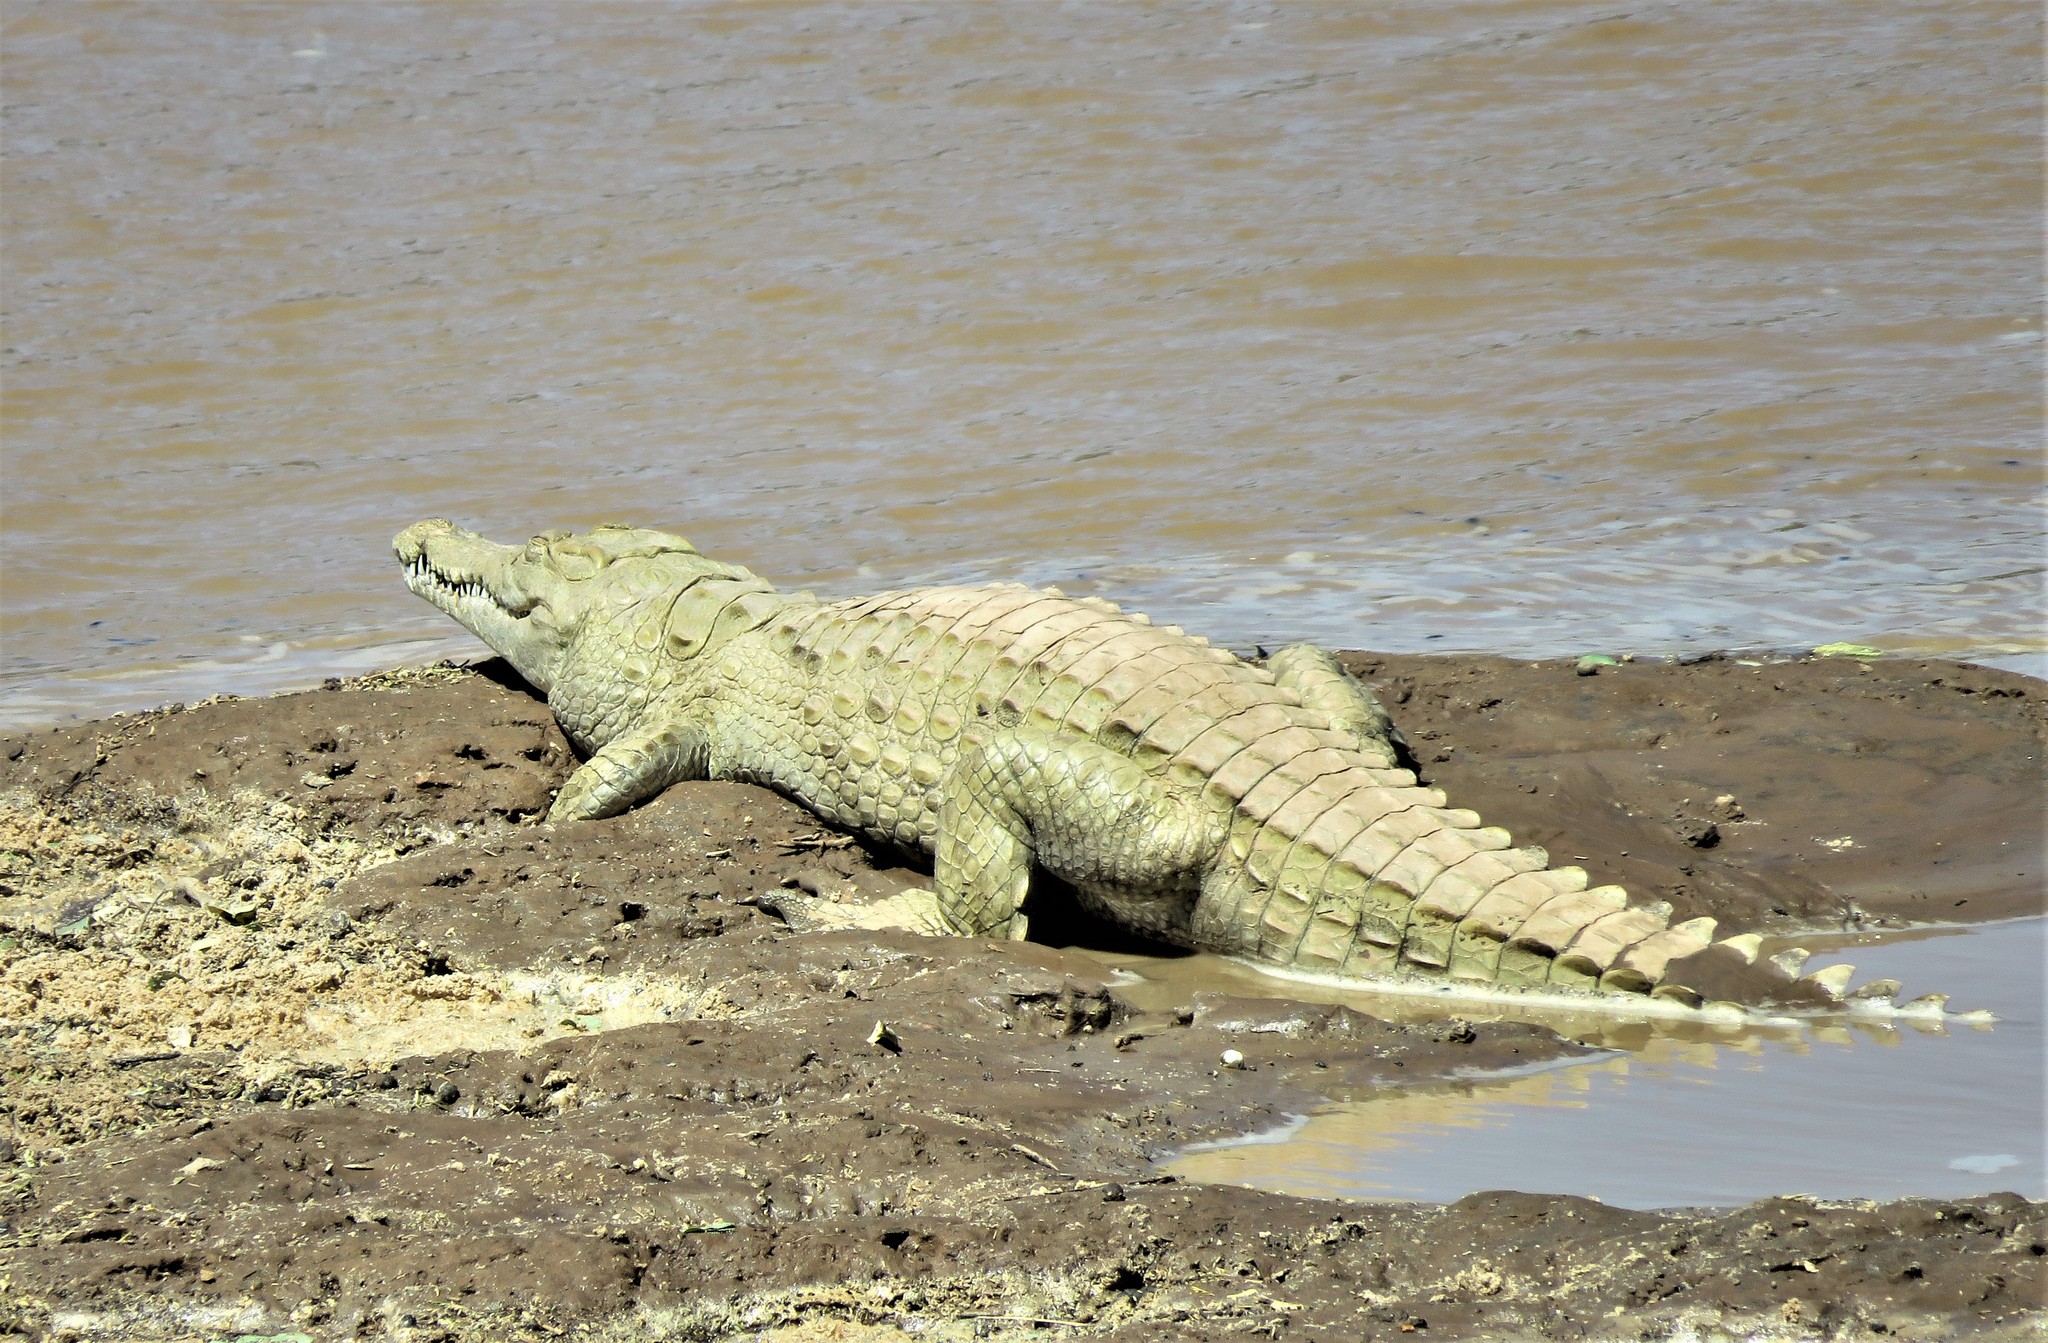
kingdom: Animalia
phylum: Chordata
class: Crocodylia
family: Crocodylidae
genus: Crocodylus
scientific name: Crocodylus niloticus
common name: Nile crocodile
